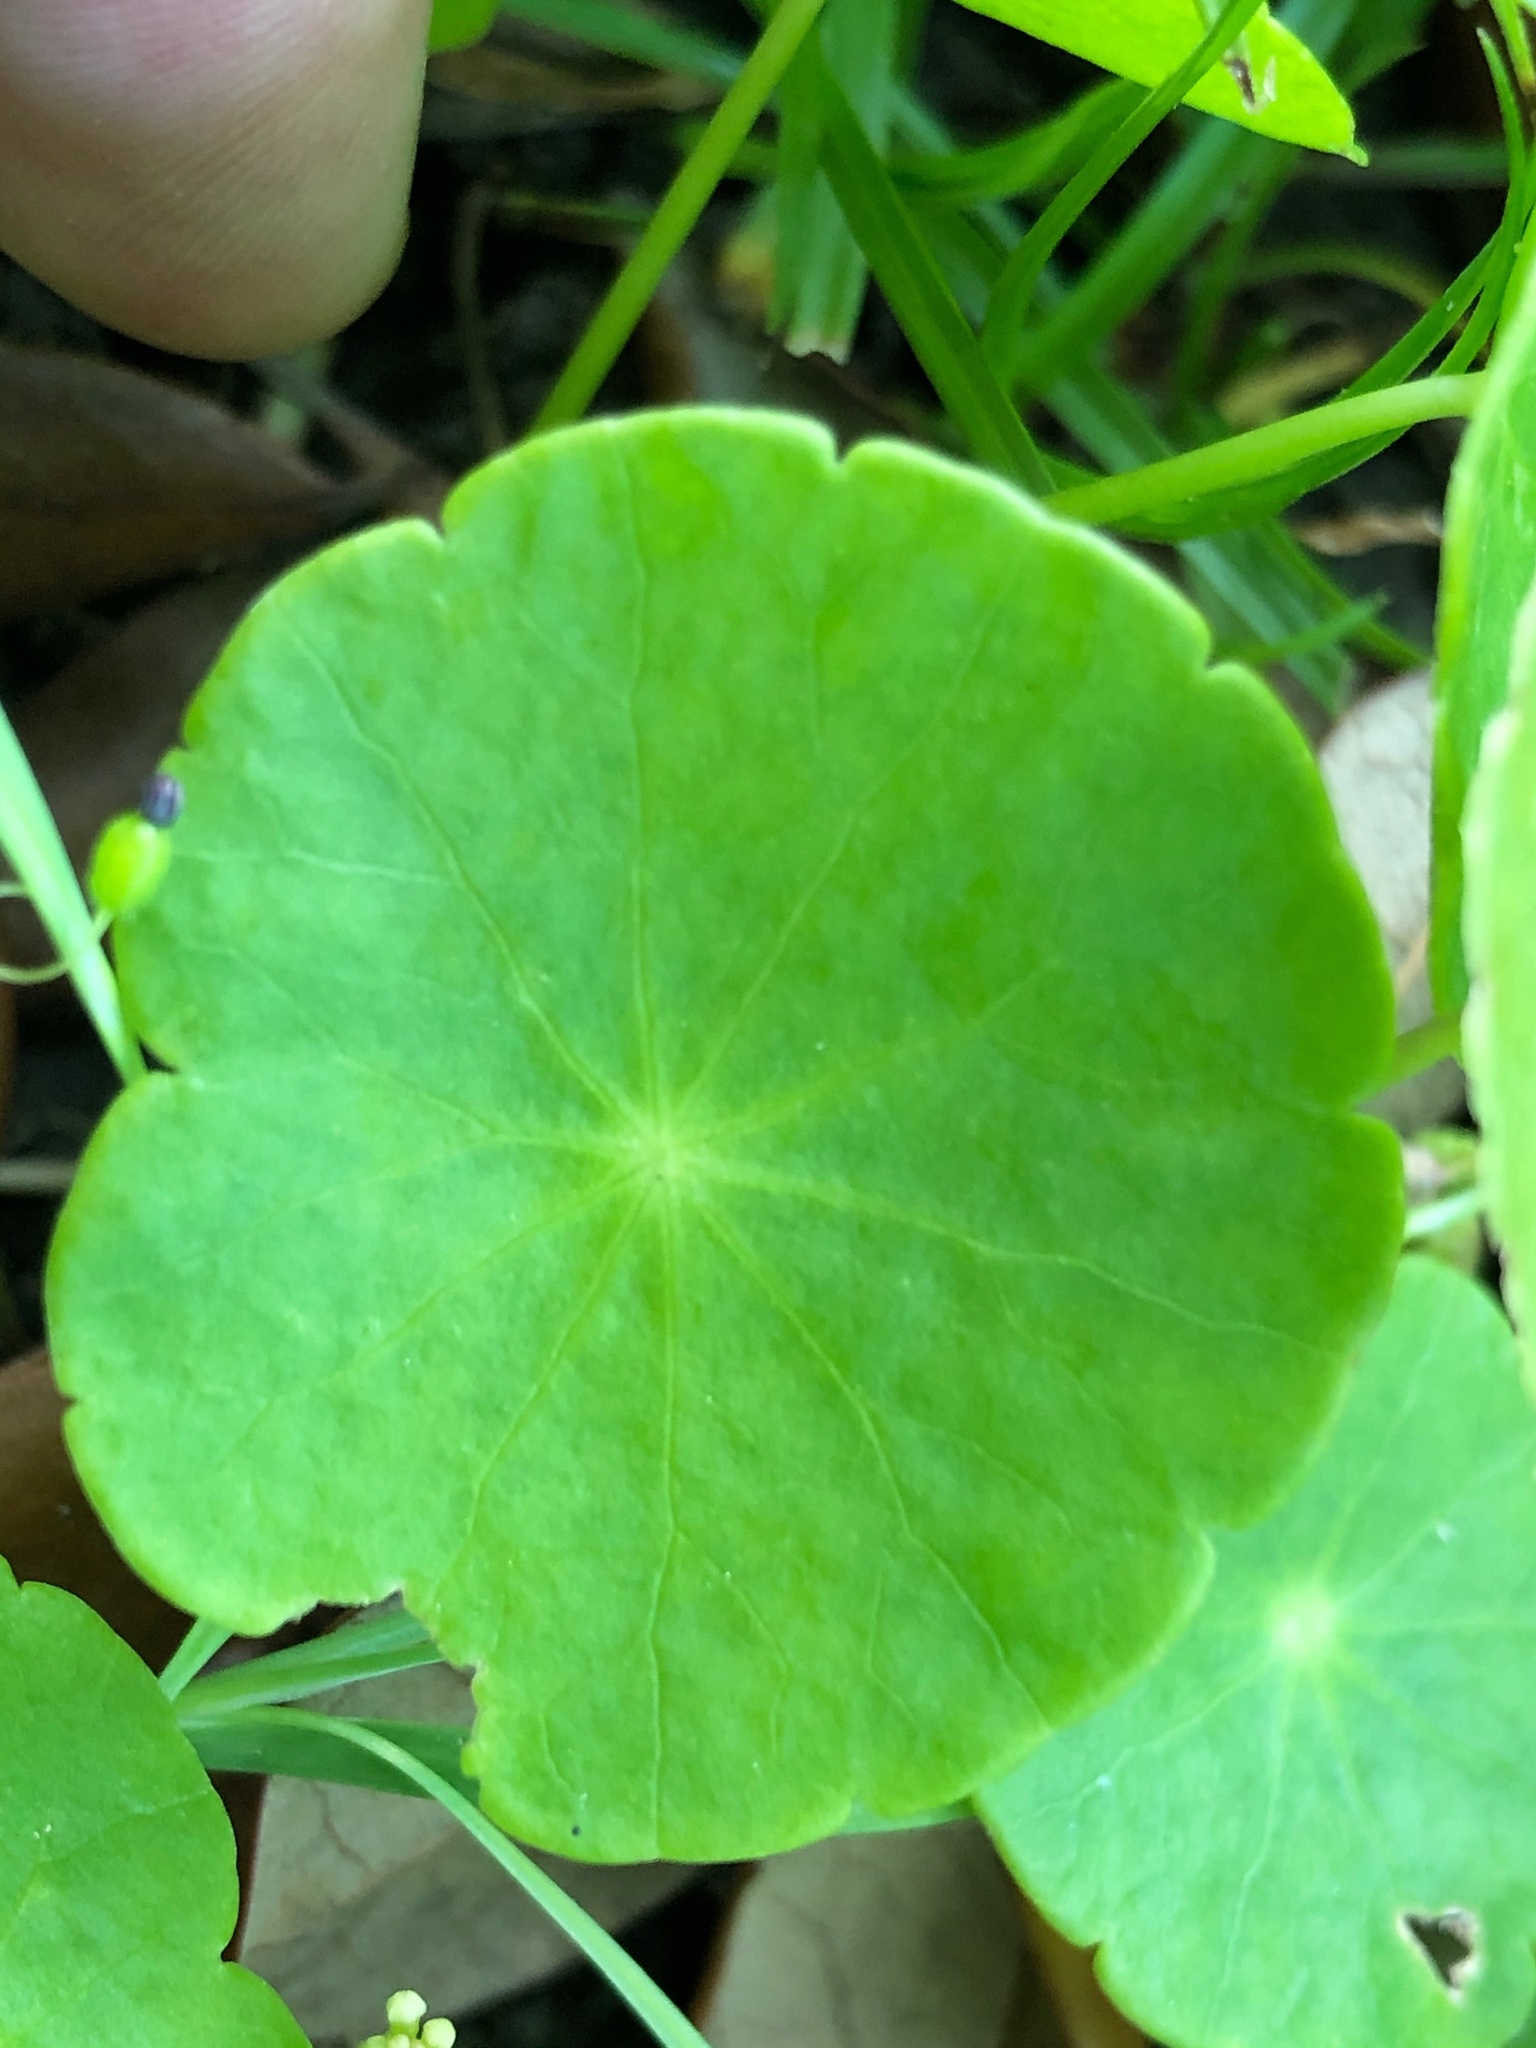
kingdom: Plantae
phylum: Tracheophyta
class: Magnoliopsida
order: Apiales
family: Araliaceae
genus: Hydrocotyle
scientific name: Hydrocotyle verticillata
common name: Whorled marshpennywort
